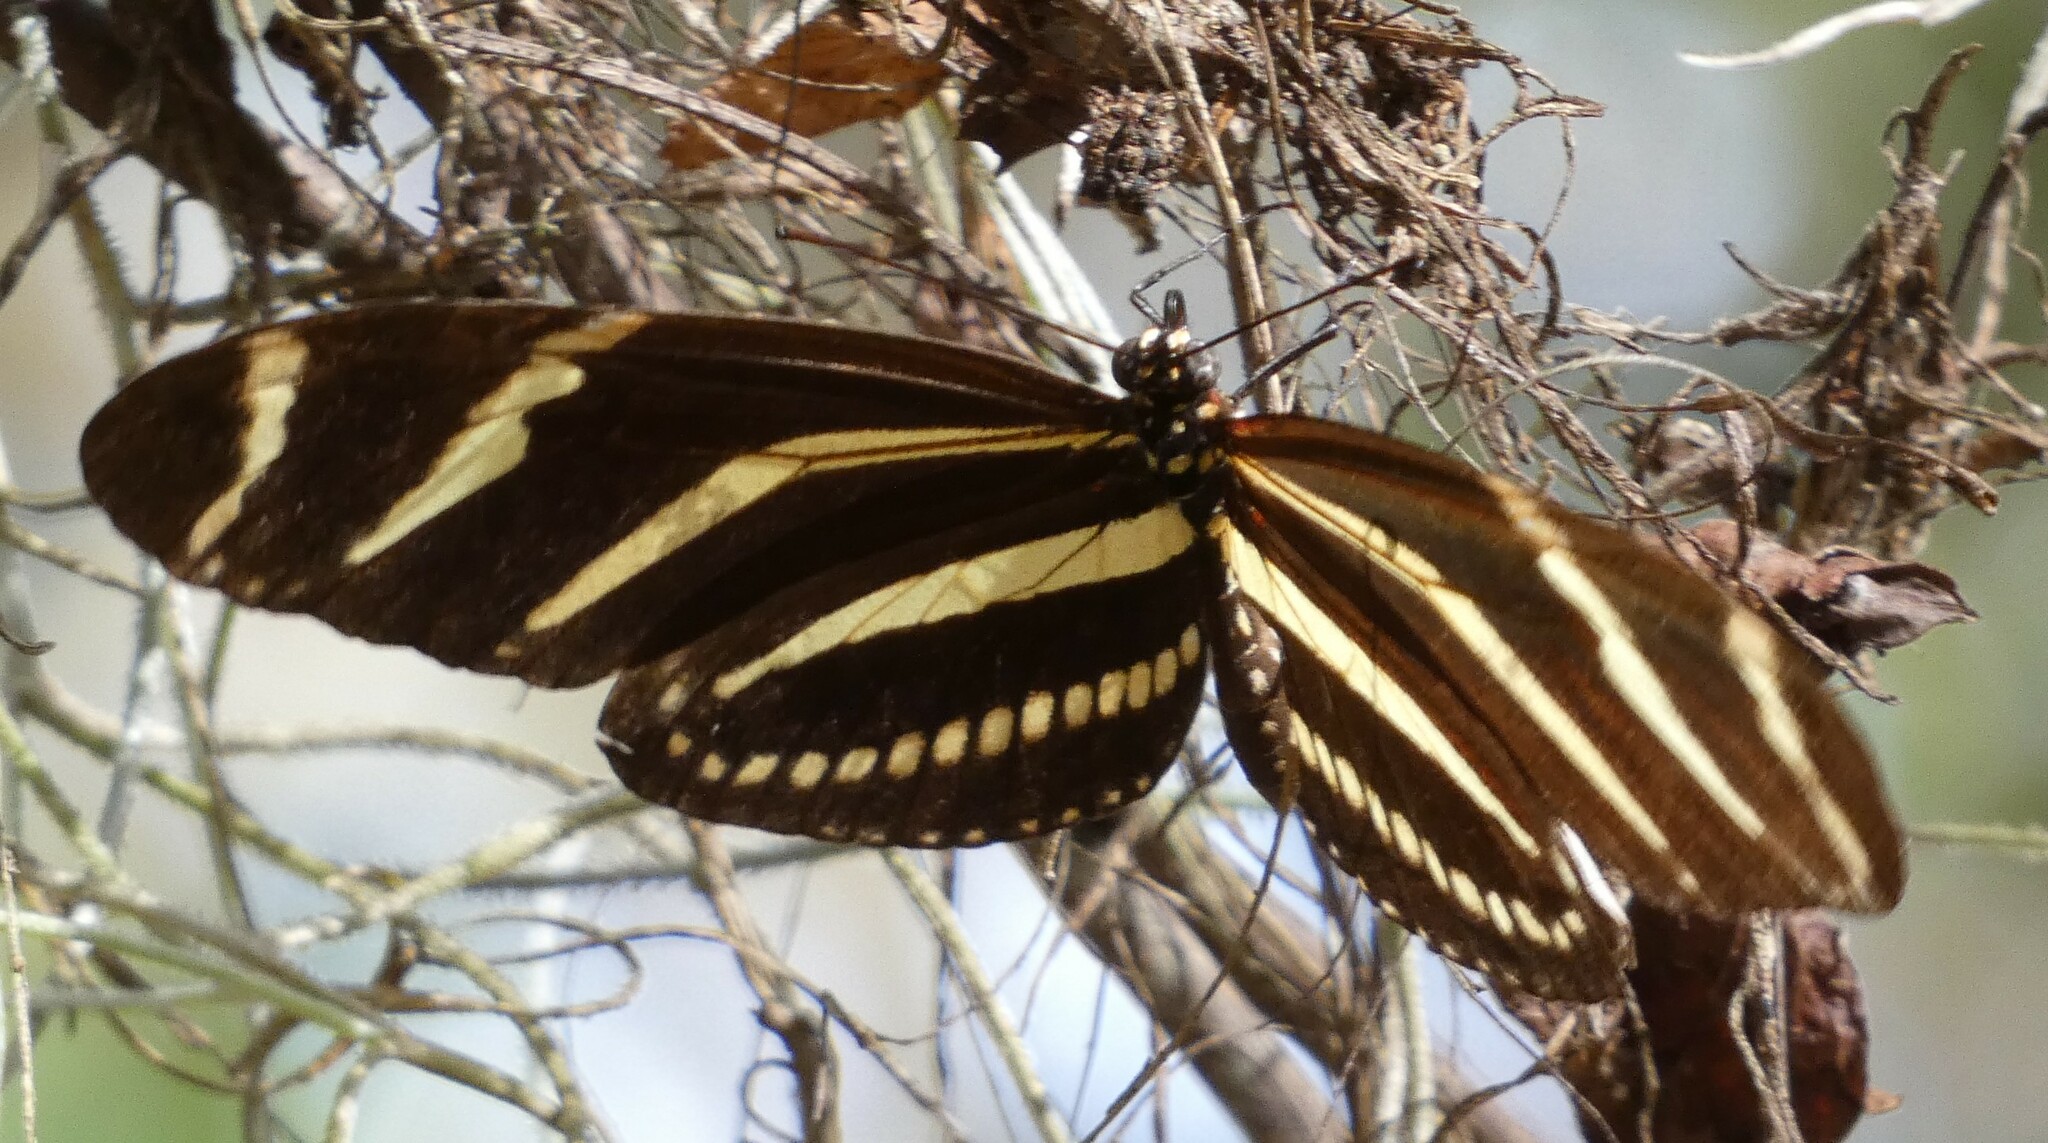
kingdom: Animalia
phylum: Arthropoda
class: Insecta
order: Lepidoptera
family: Nymphalidae
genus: Heliconius
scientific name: Heliconius charithonia
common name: Zebra long wing
